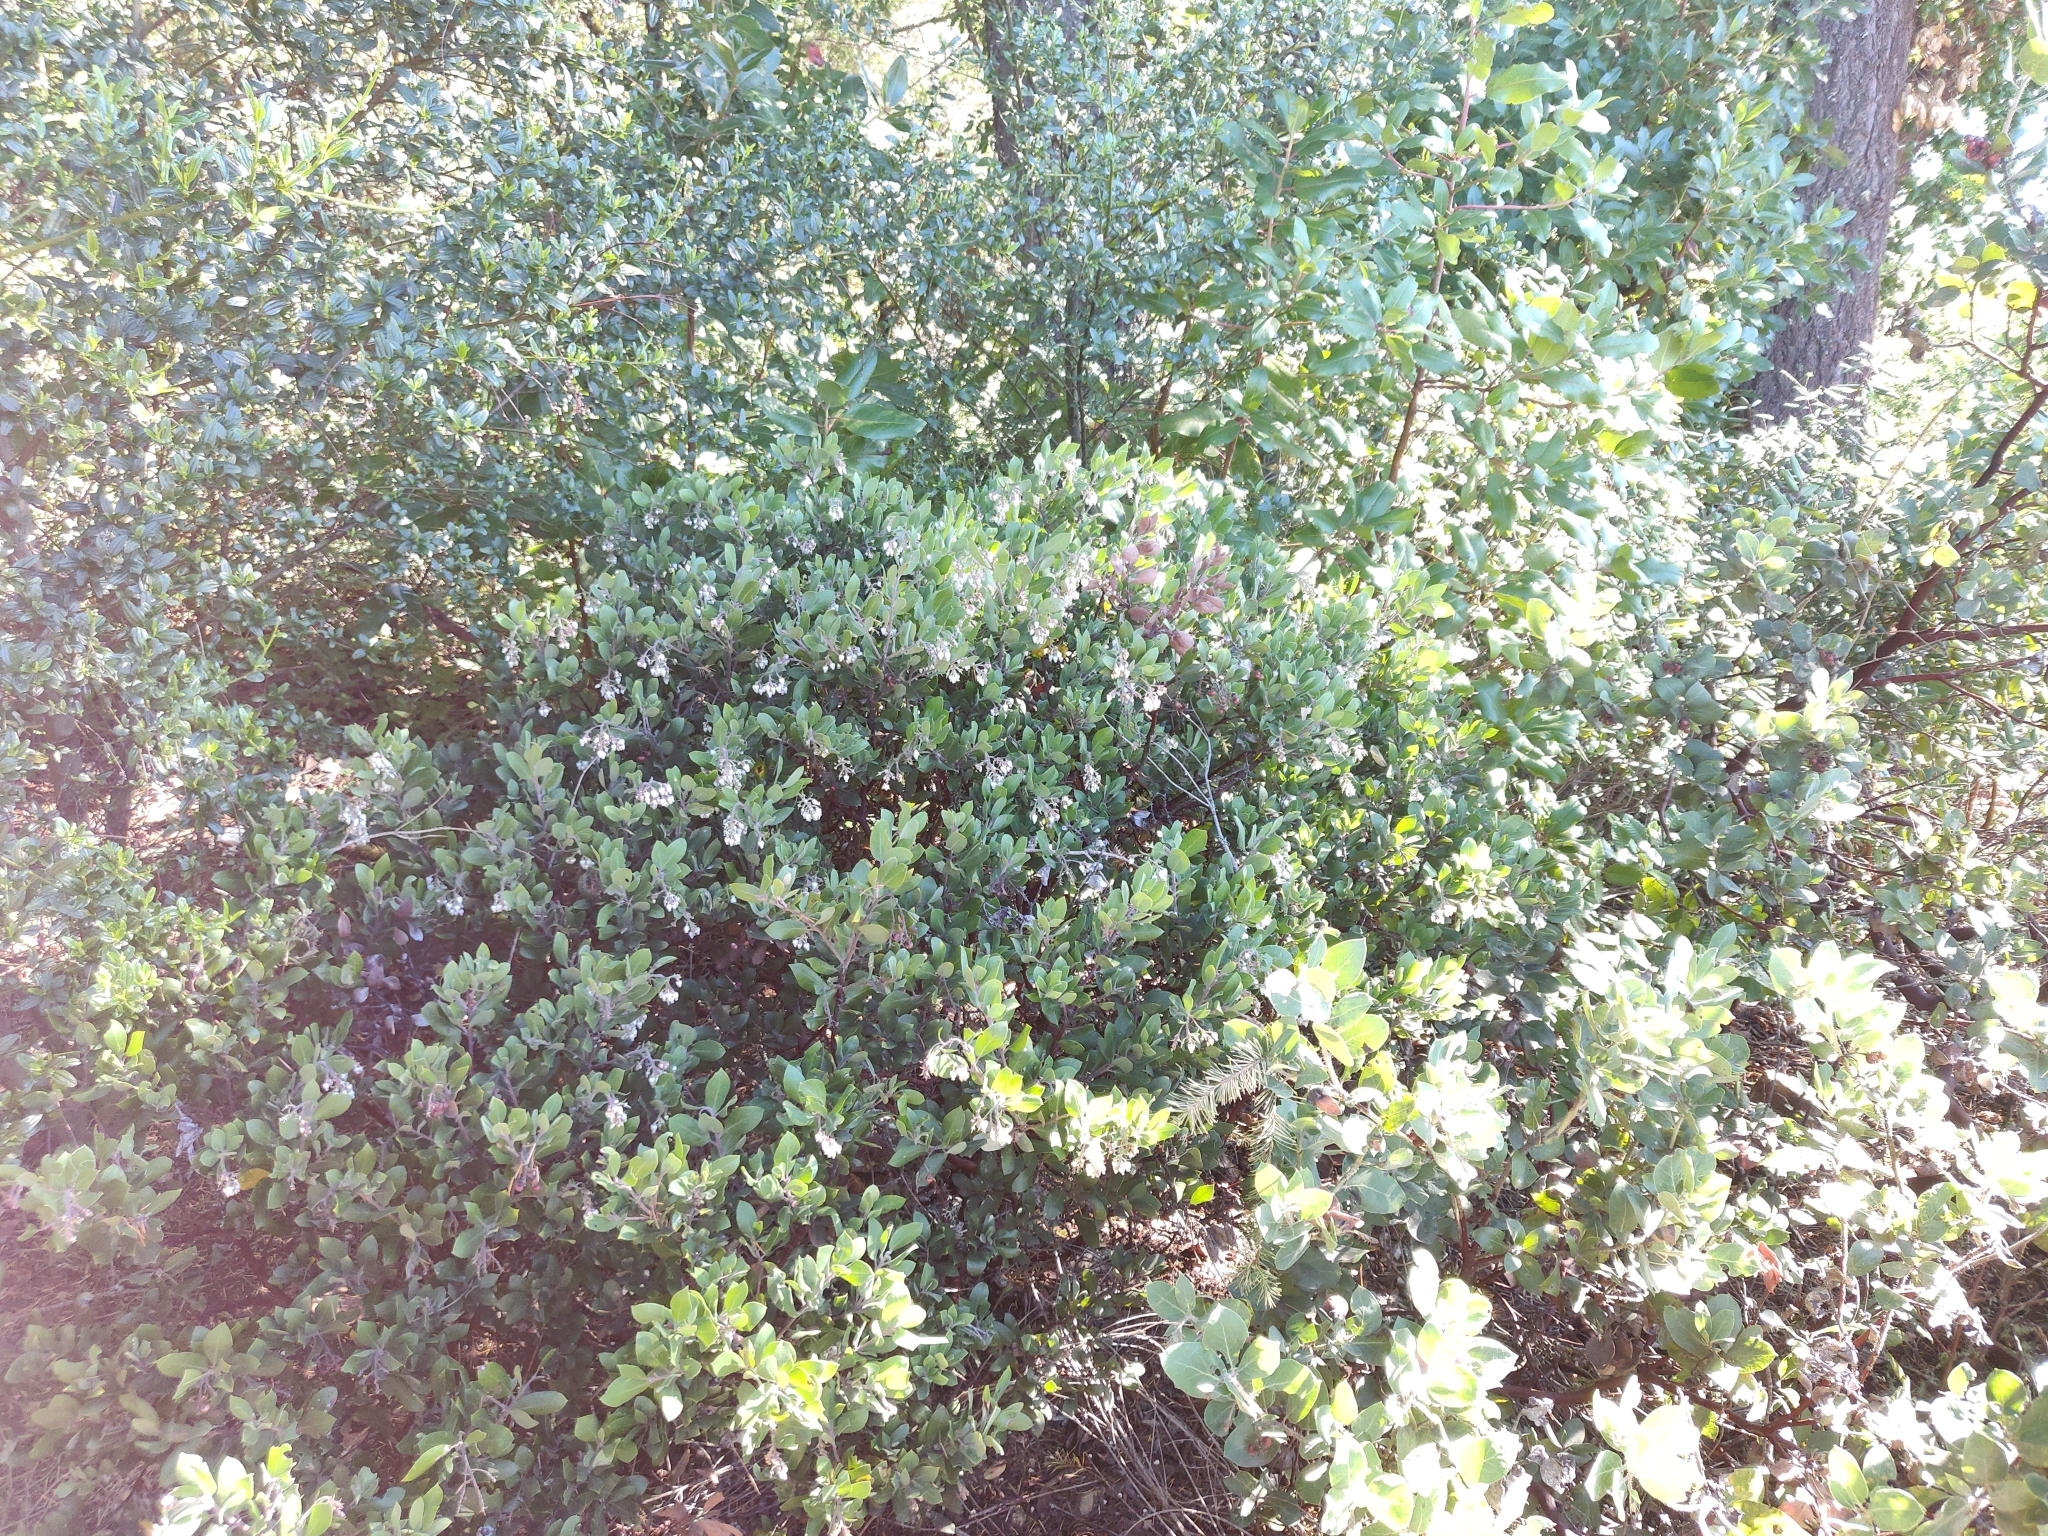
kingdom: Plantae
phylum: Tracheophyta
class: Magnoliopsida
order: Ericales
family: Ericaceae
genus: Arctostaphylos
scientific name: Arctostaphylos crustacea
